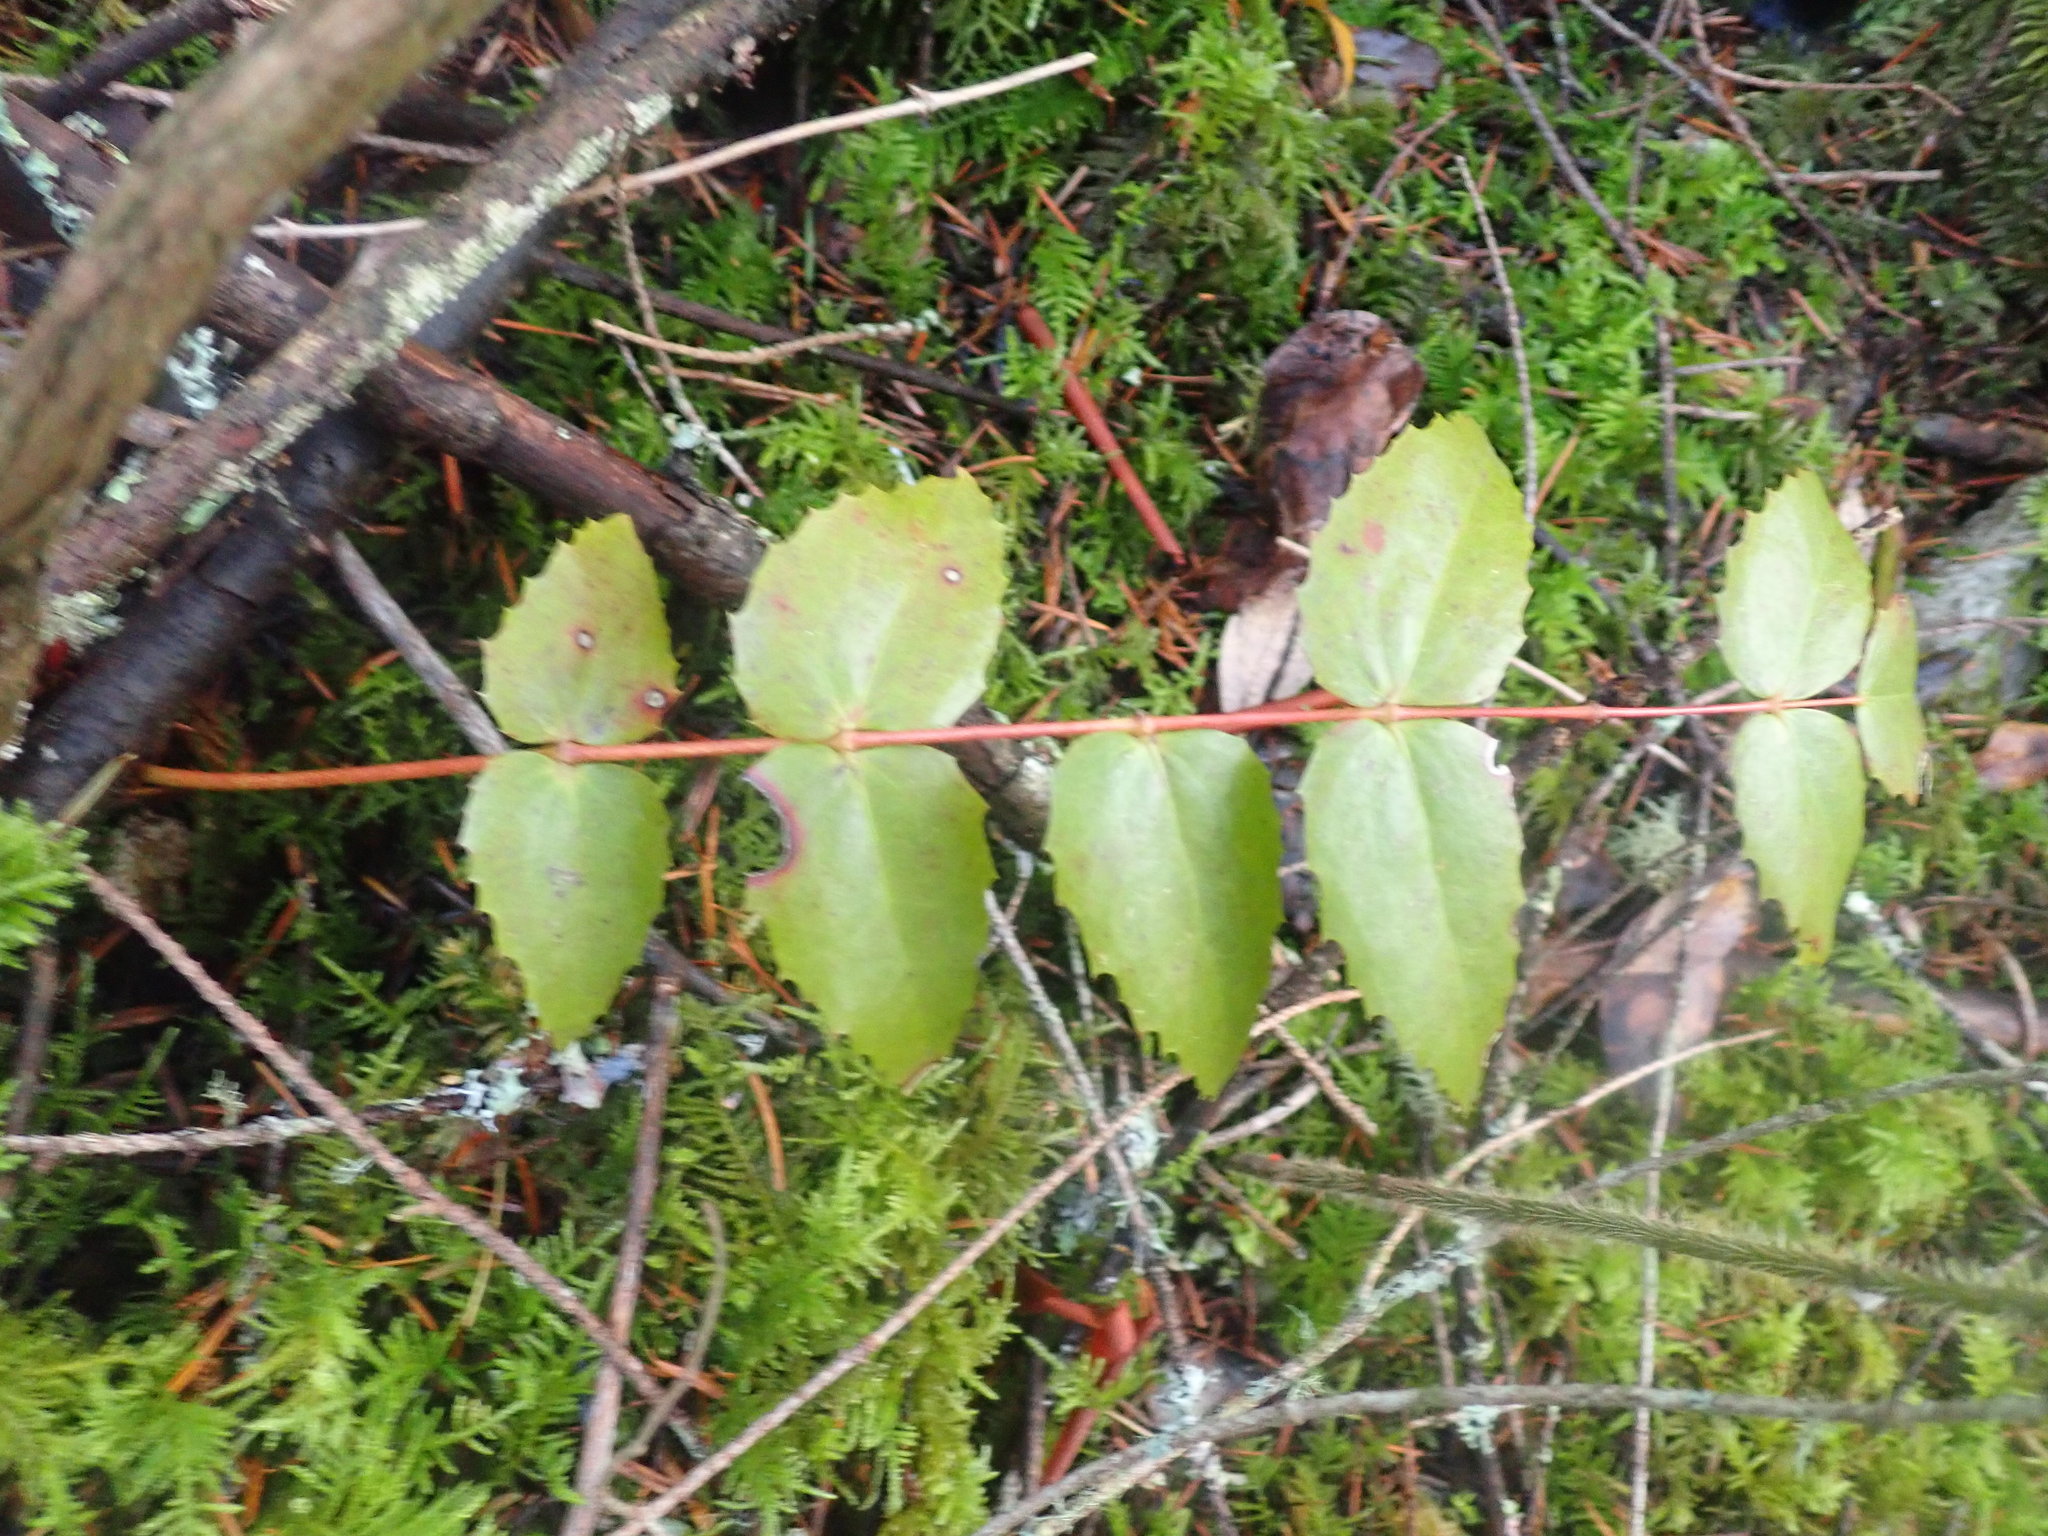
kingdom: Plantae
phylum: Tracheophyta
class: Magnoliopsida
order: Ranunculales
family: Berberidaceae
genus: Mahonia
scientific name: Mahonia nervosa
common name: Cascade oregon-grape
